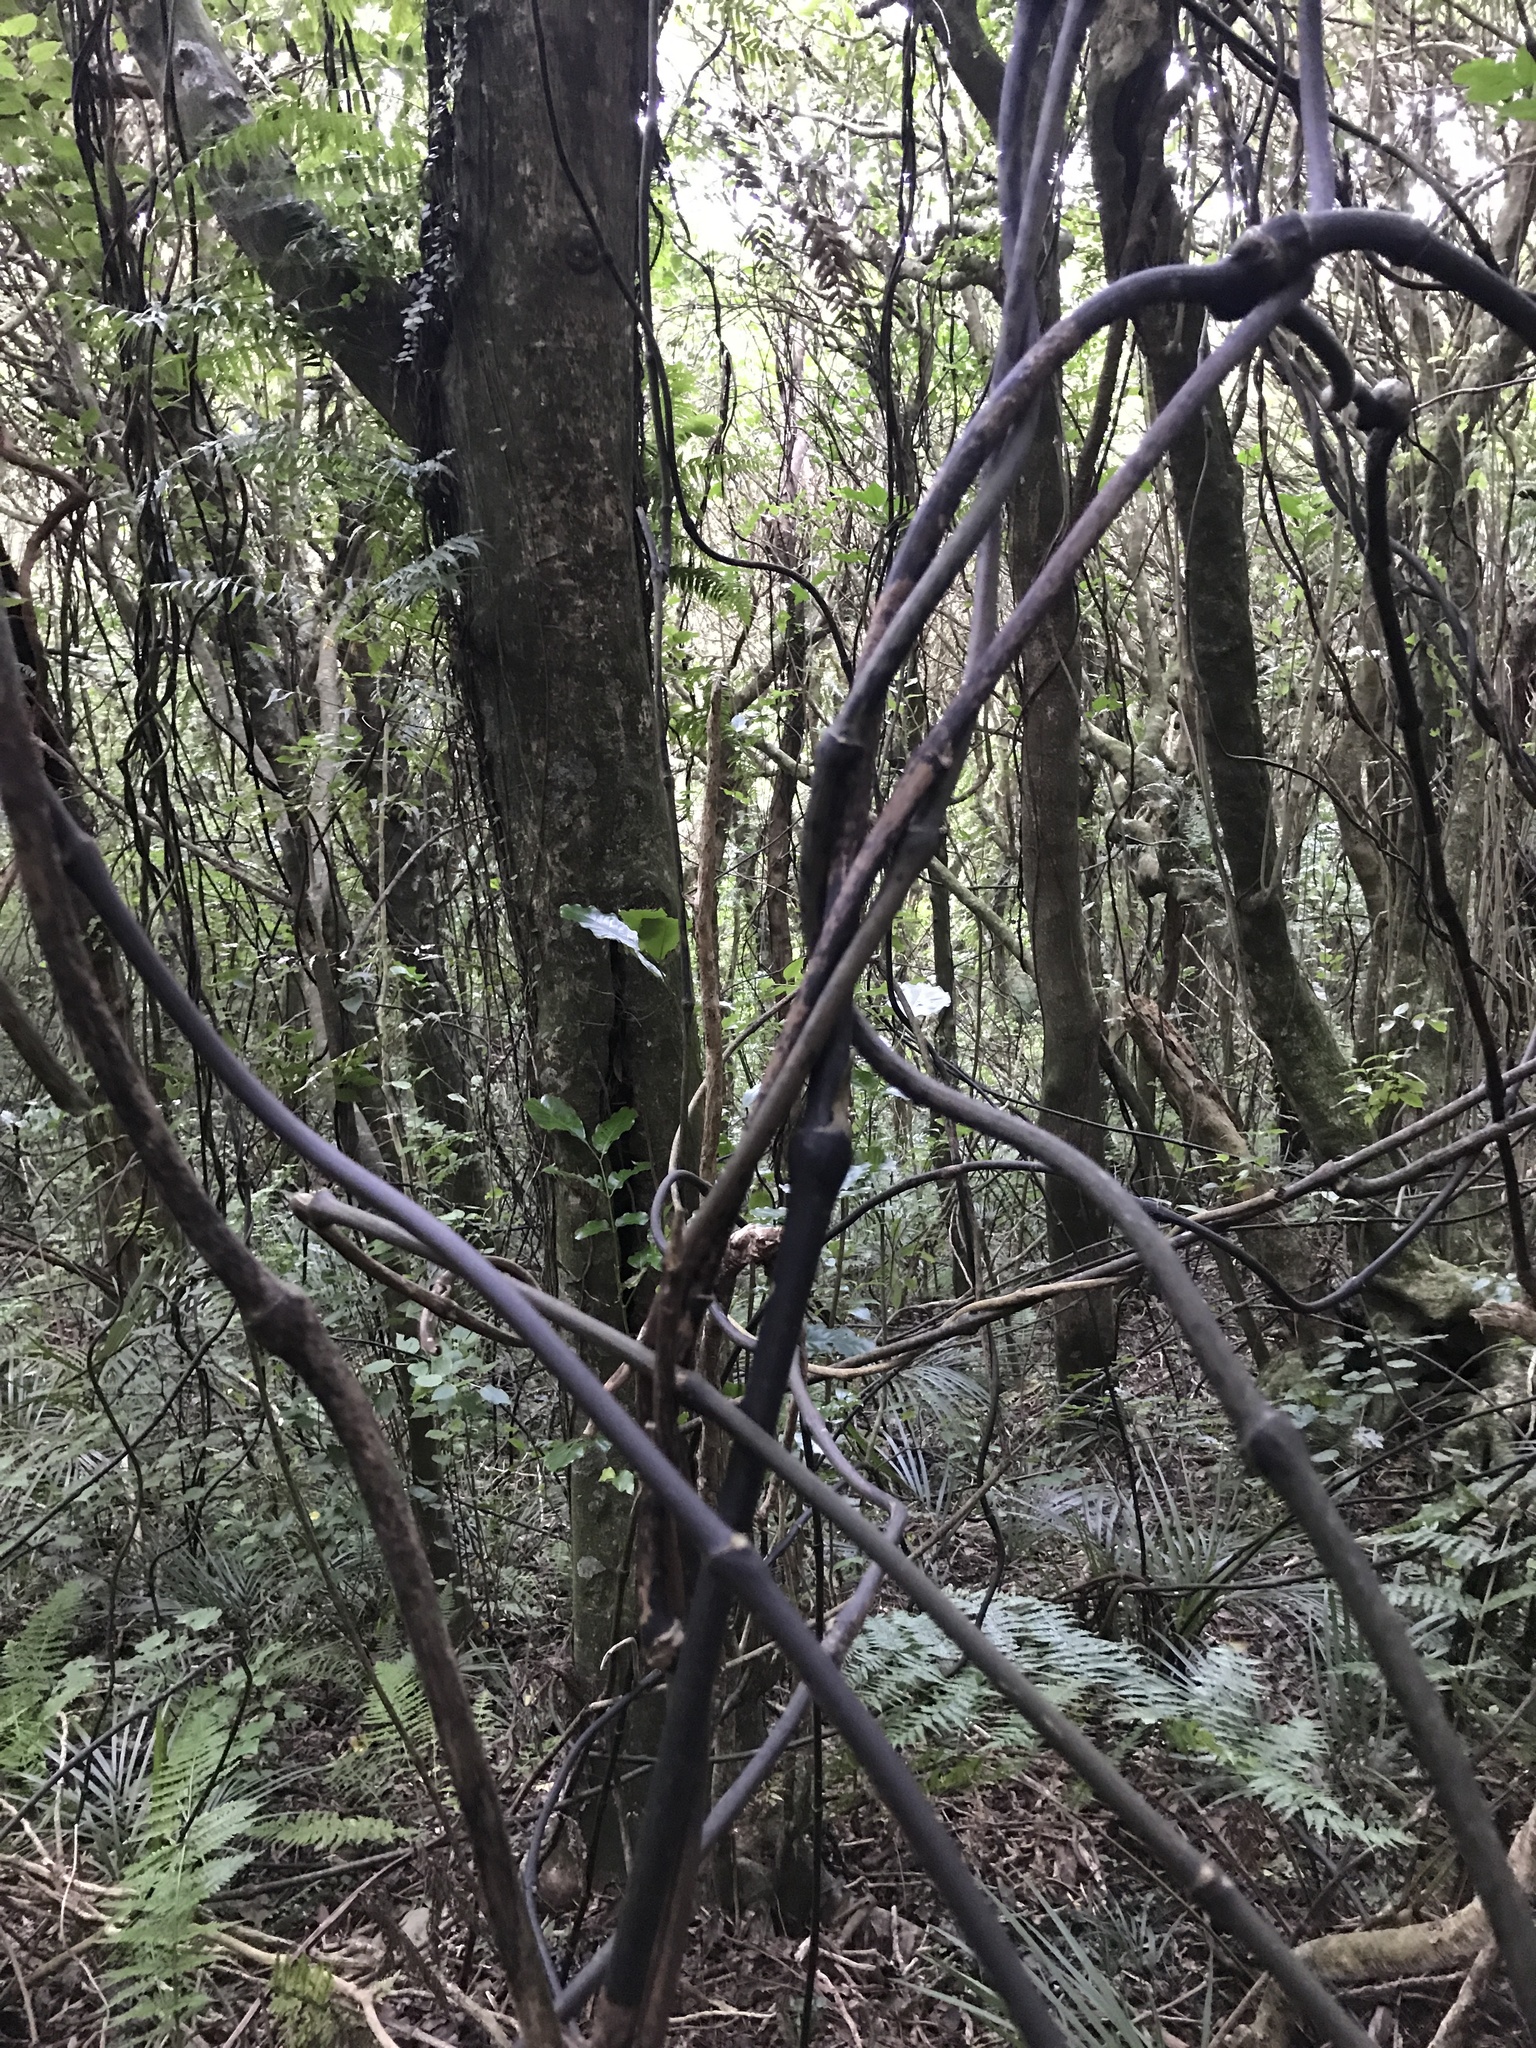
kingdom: Plantae
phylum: Tracheophyta
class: Liliopsida
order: Liliales
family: Ripogonaceae
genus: Ripogonum
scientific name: Ripogonum scandens
